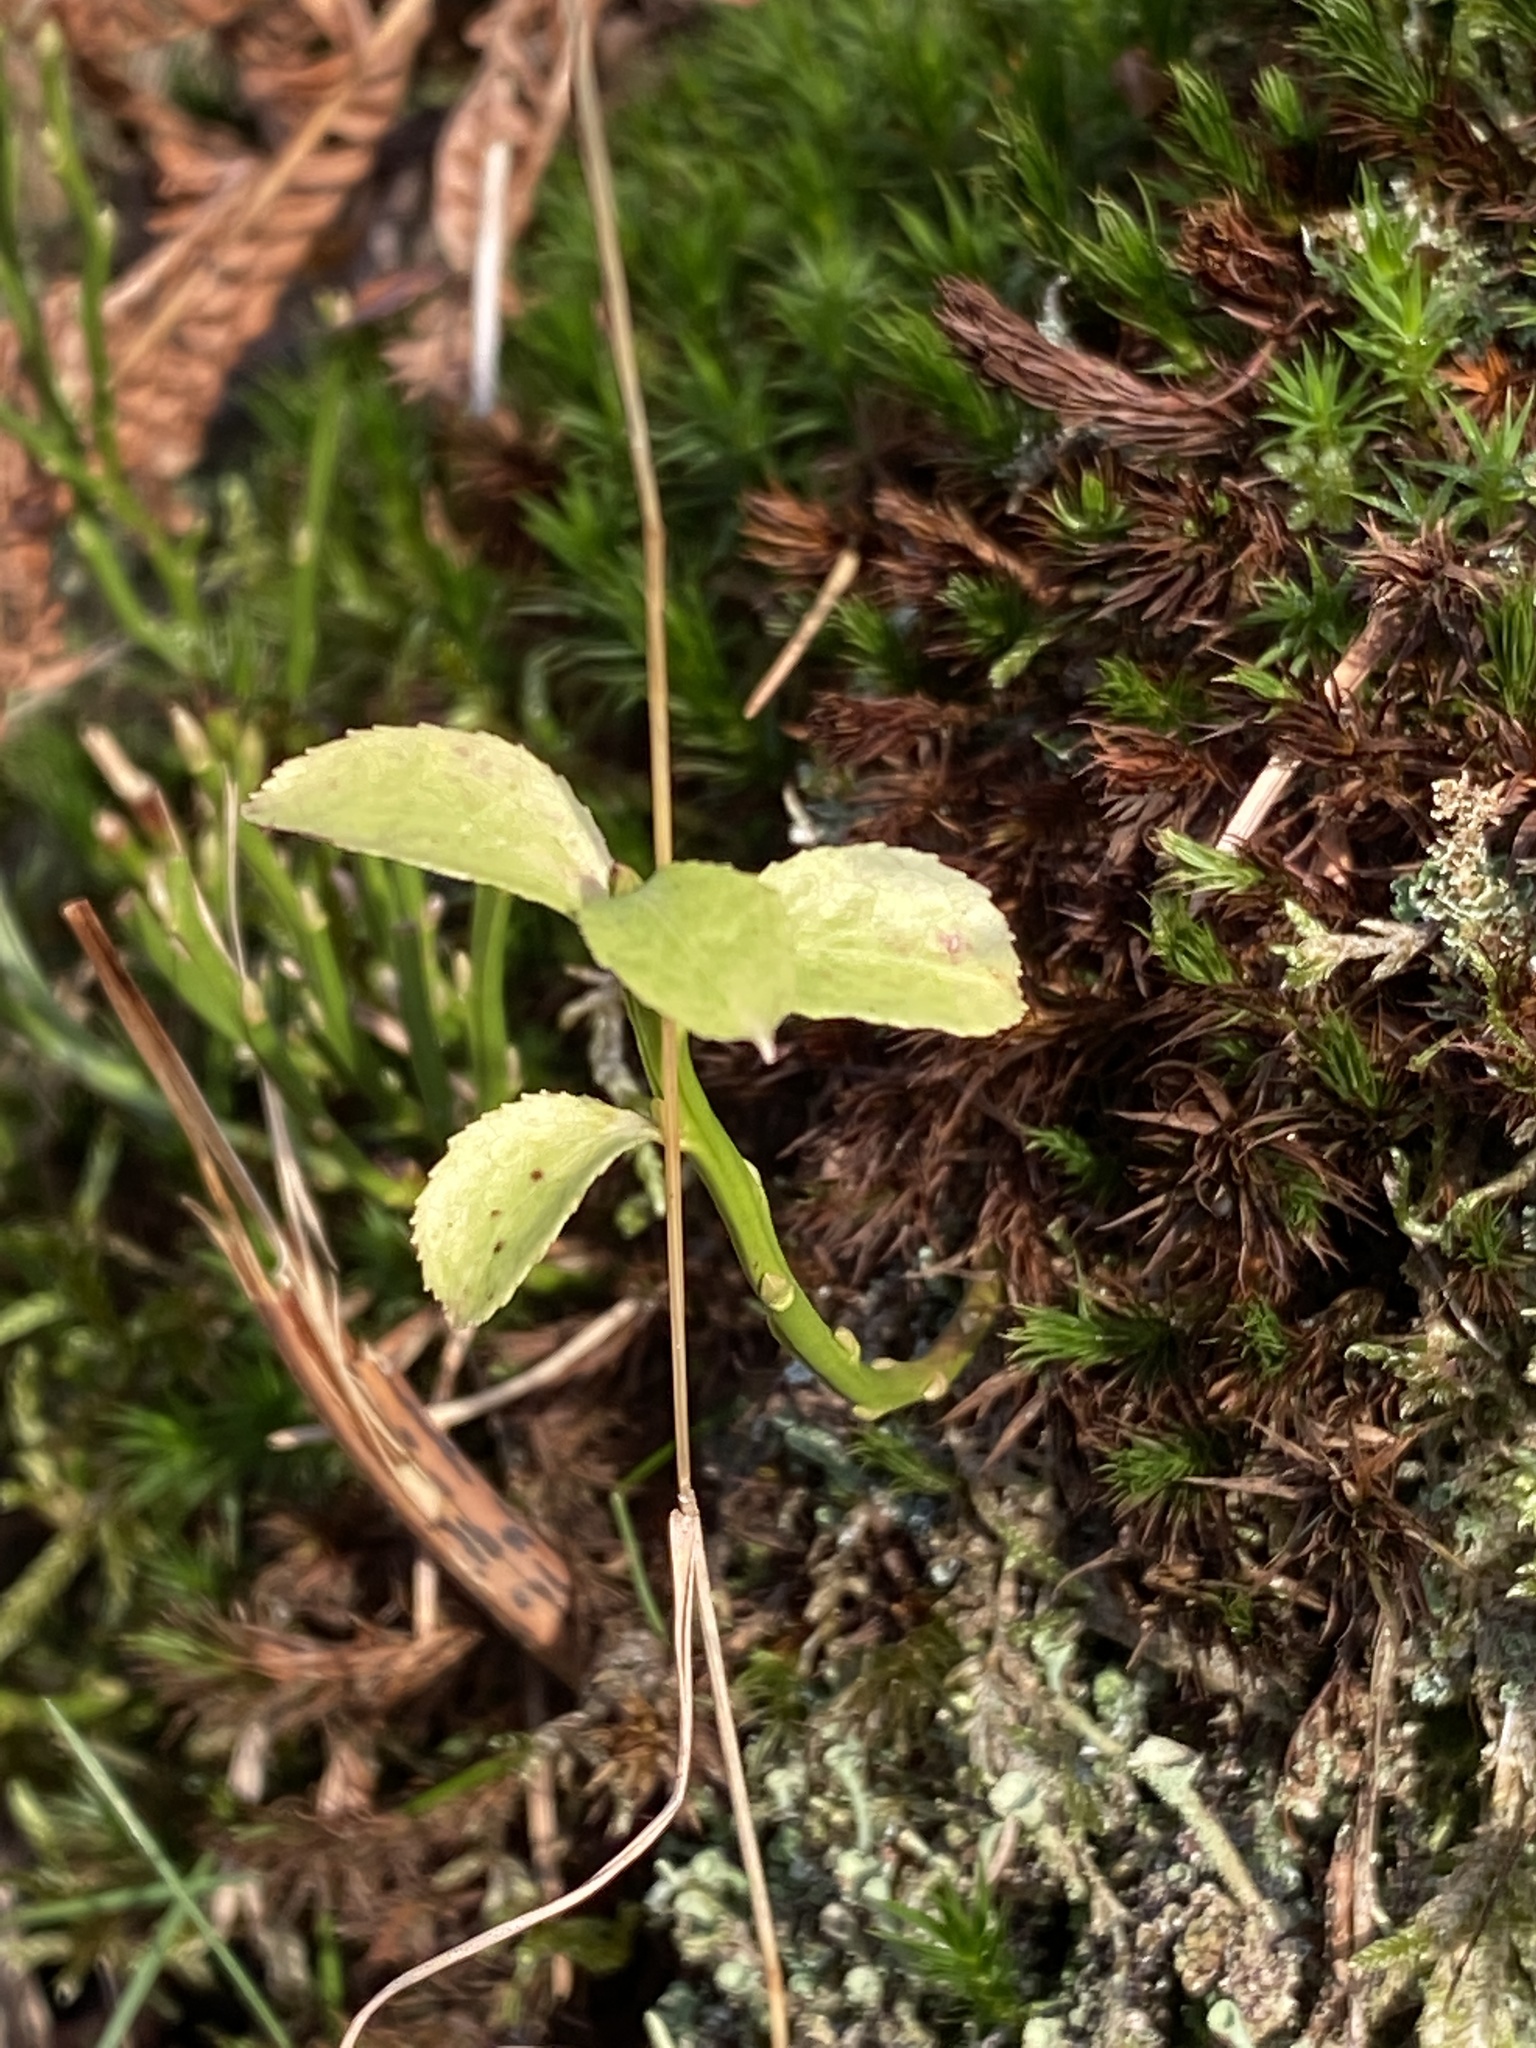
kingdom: Plantae
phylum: Tracheophyta
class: Magnoliopsida
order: Ericales
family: Ericaceae
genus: Vaccinium
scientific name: Vaccinium myrtillus
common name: Bilberry
